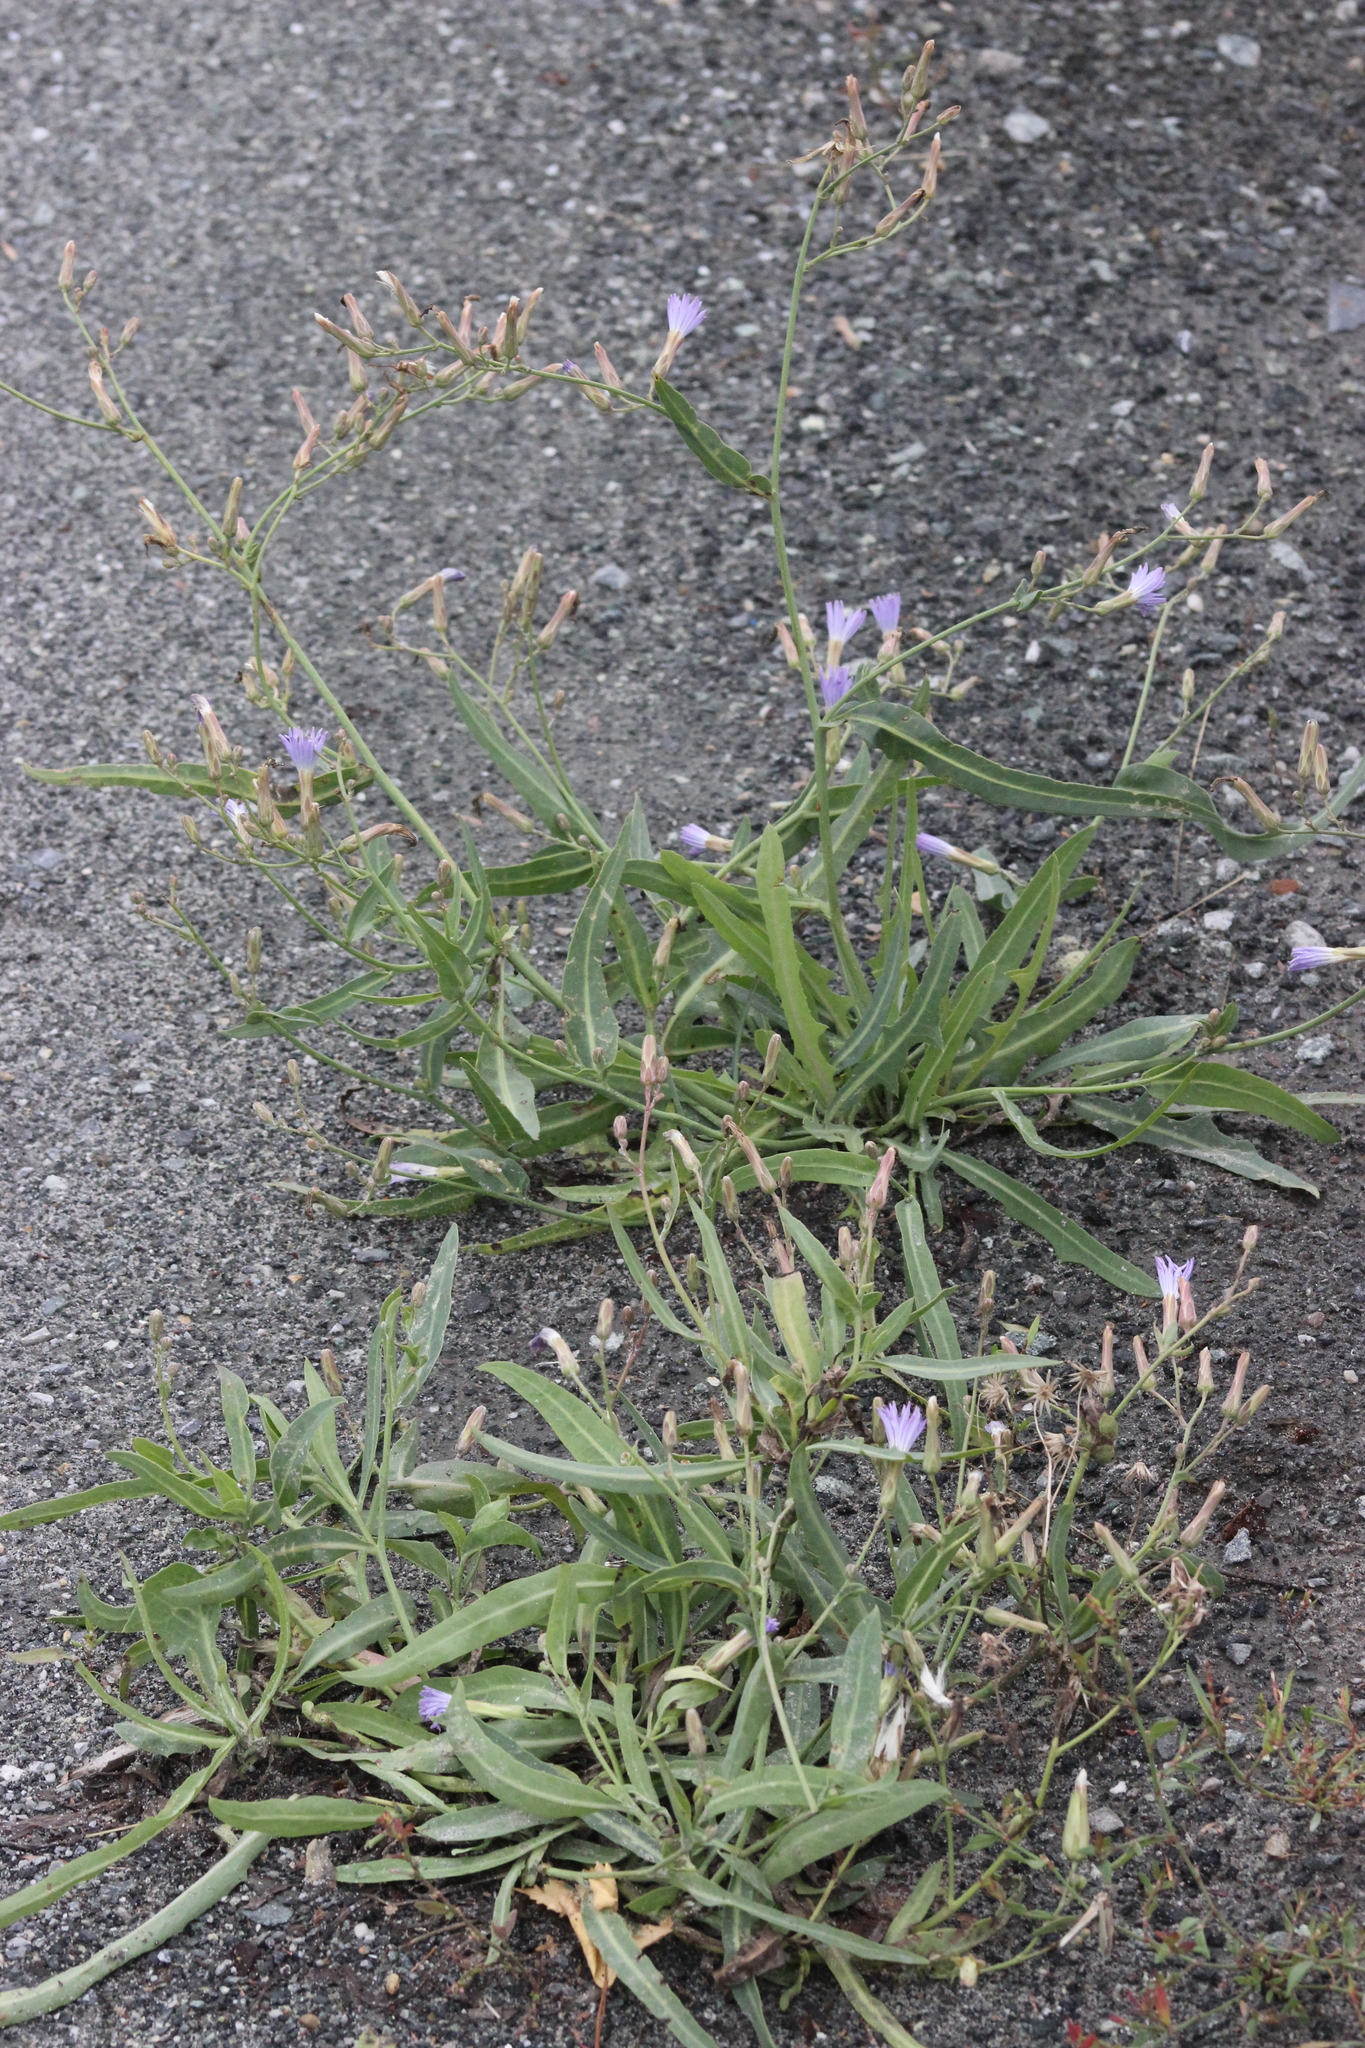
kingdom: Plantae
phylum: Tracheophyta
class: Magnoliopsida
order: Asterales
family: Asteraceae
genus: Lactuca
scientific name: Lactuca tatarica
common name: Blue lettuce
